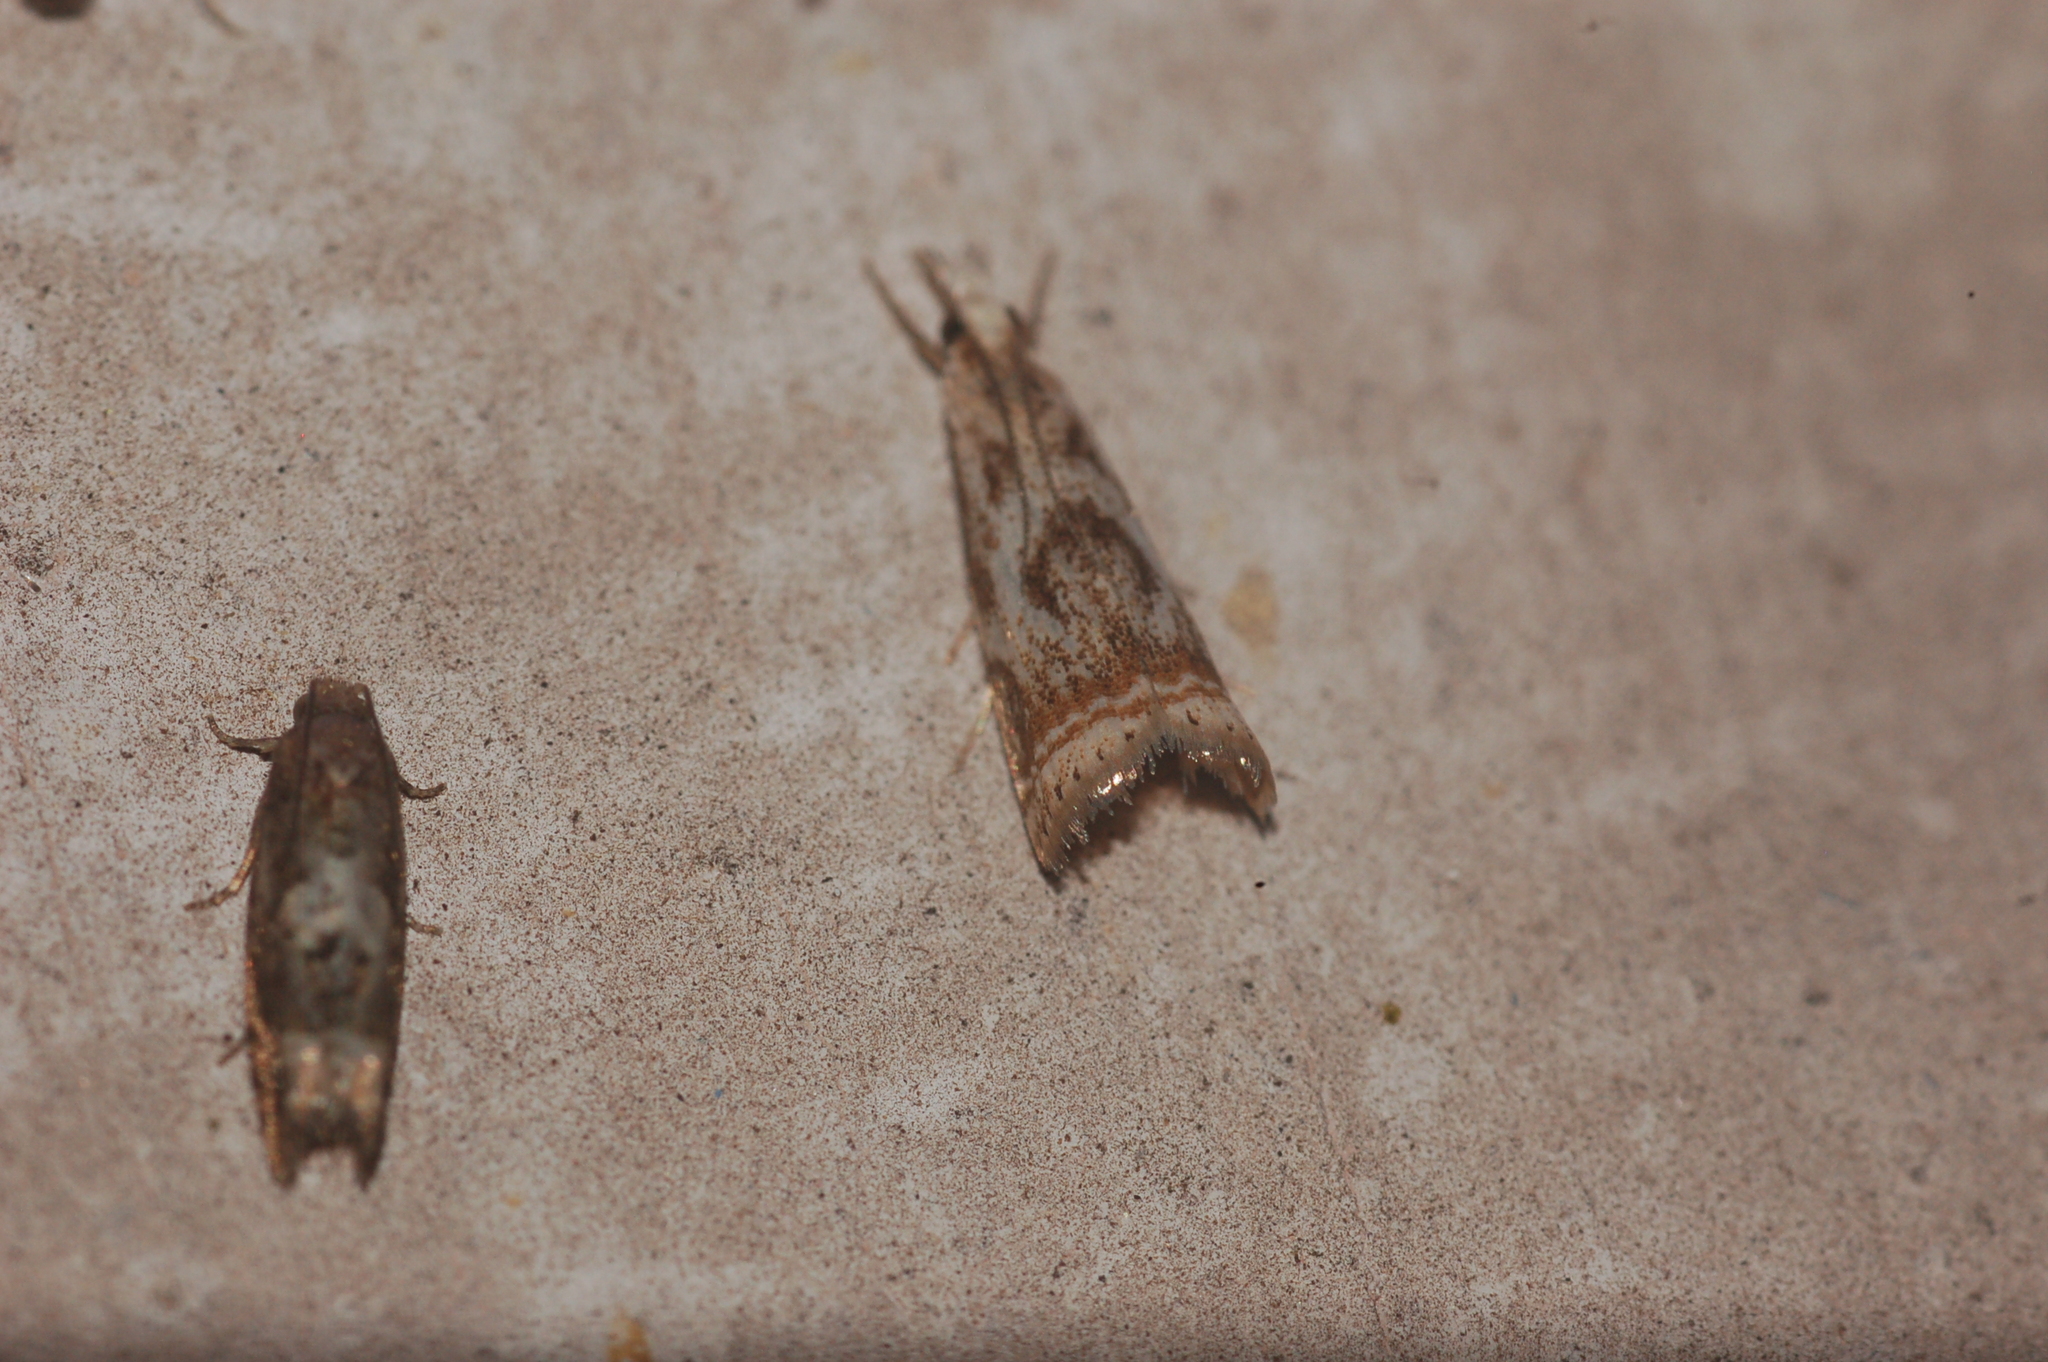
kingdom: Animalia
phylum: Arthropoda
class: Insecta
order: Lepidoptera
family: Crambidae
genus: Microcrambus
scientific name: Microcrambus elegans
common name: Elegant grass-veneer
